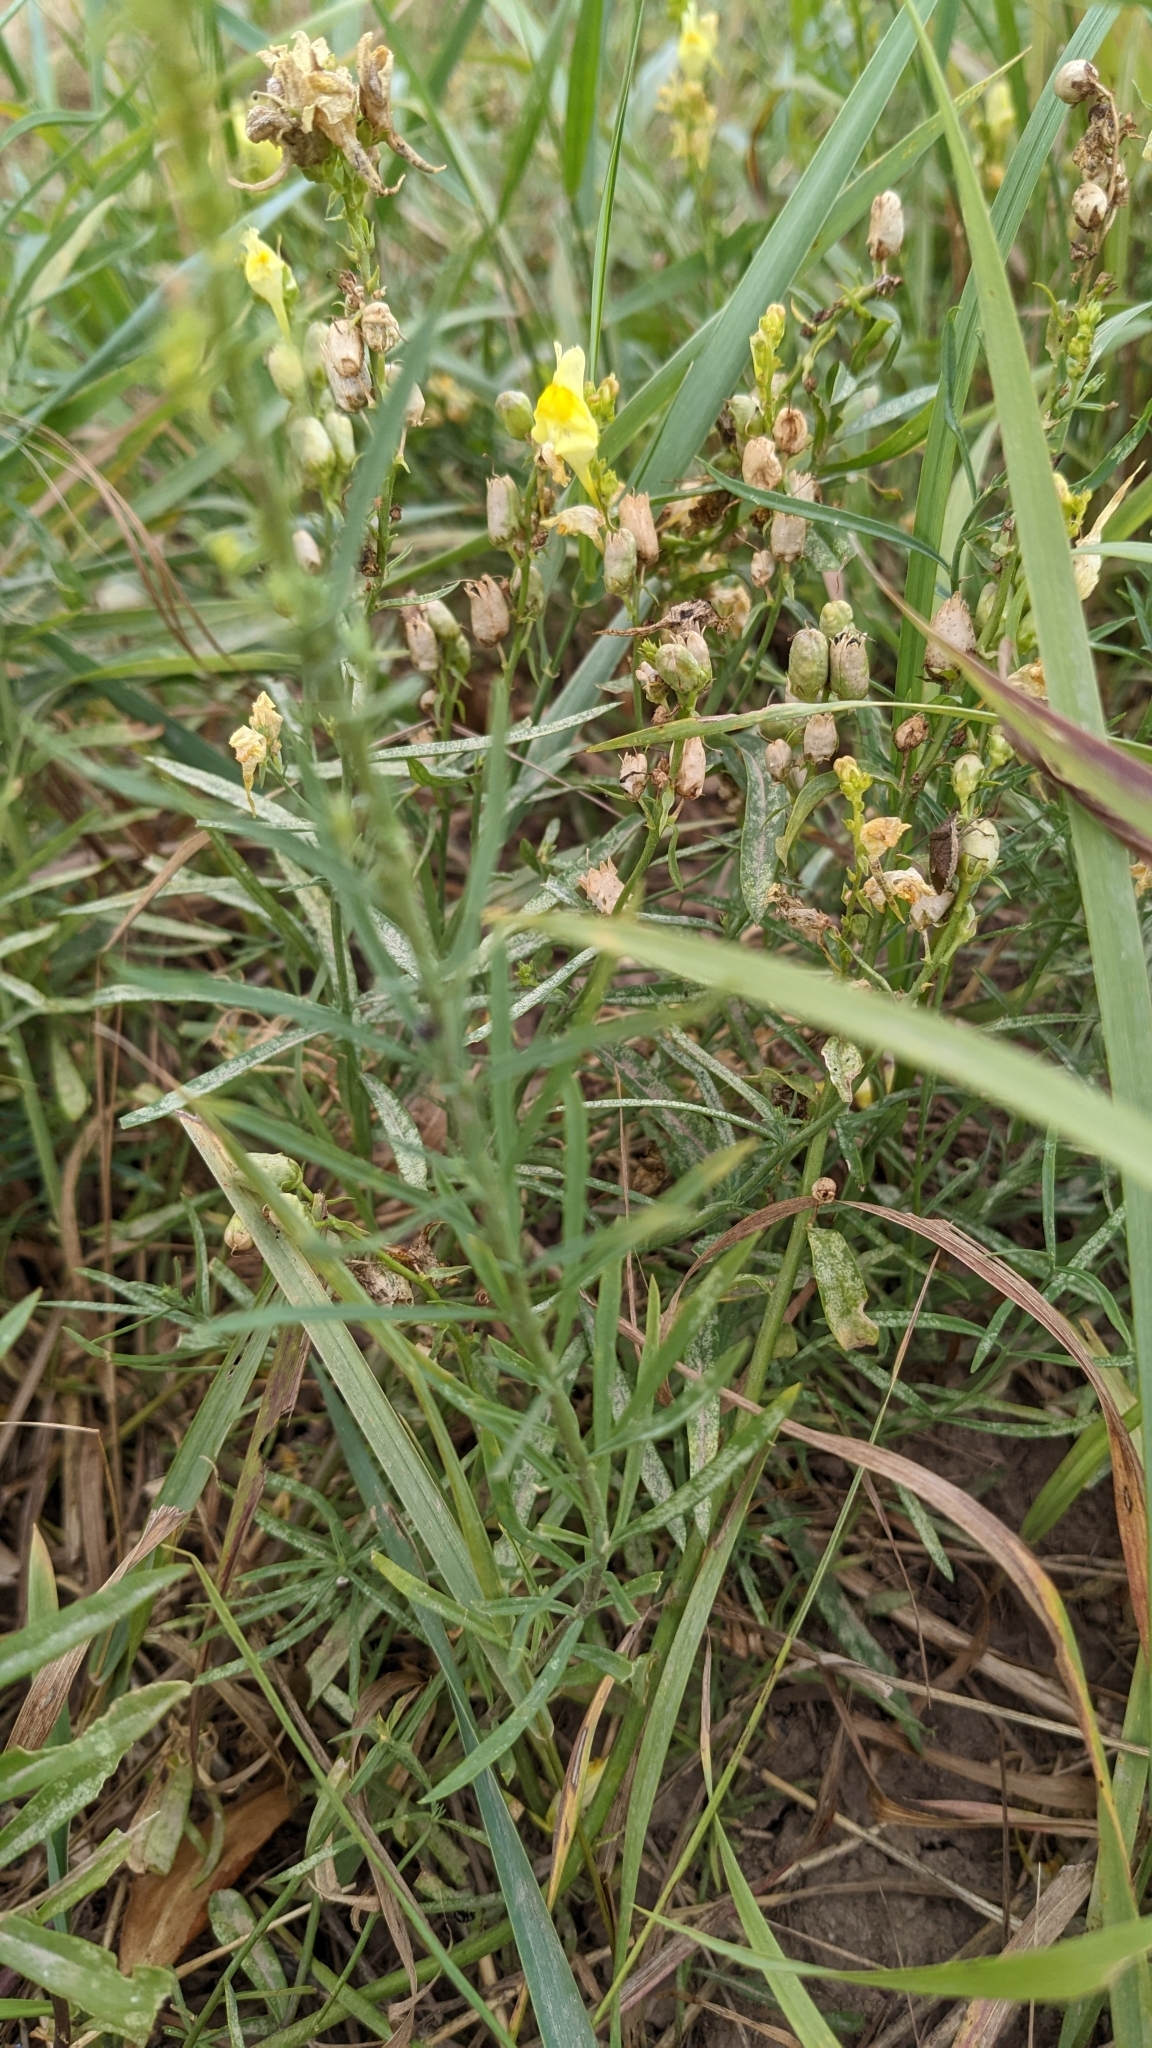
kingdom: Plantae
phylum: Tracheophyta
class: Magnoliopsida
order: Lamiales
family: Plantaginaceae
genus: Linaria
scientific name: Linaria vulgaris
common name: Butter and eggs
